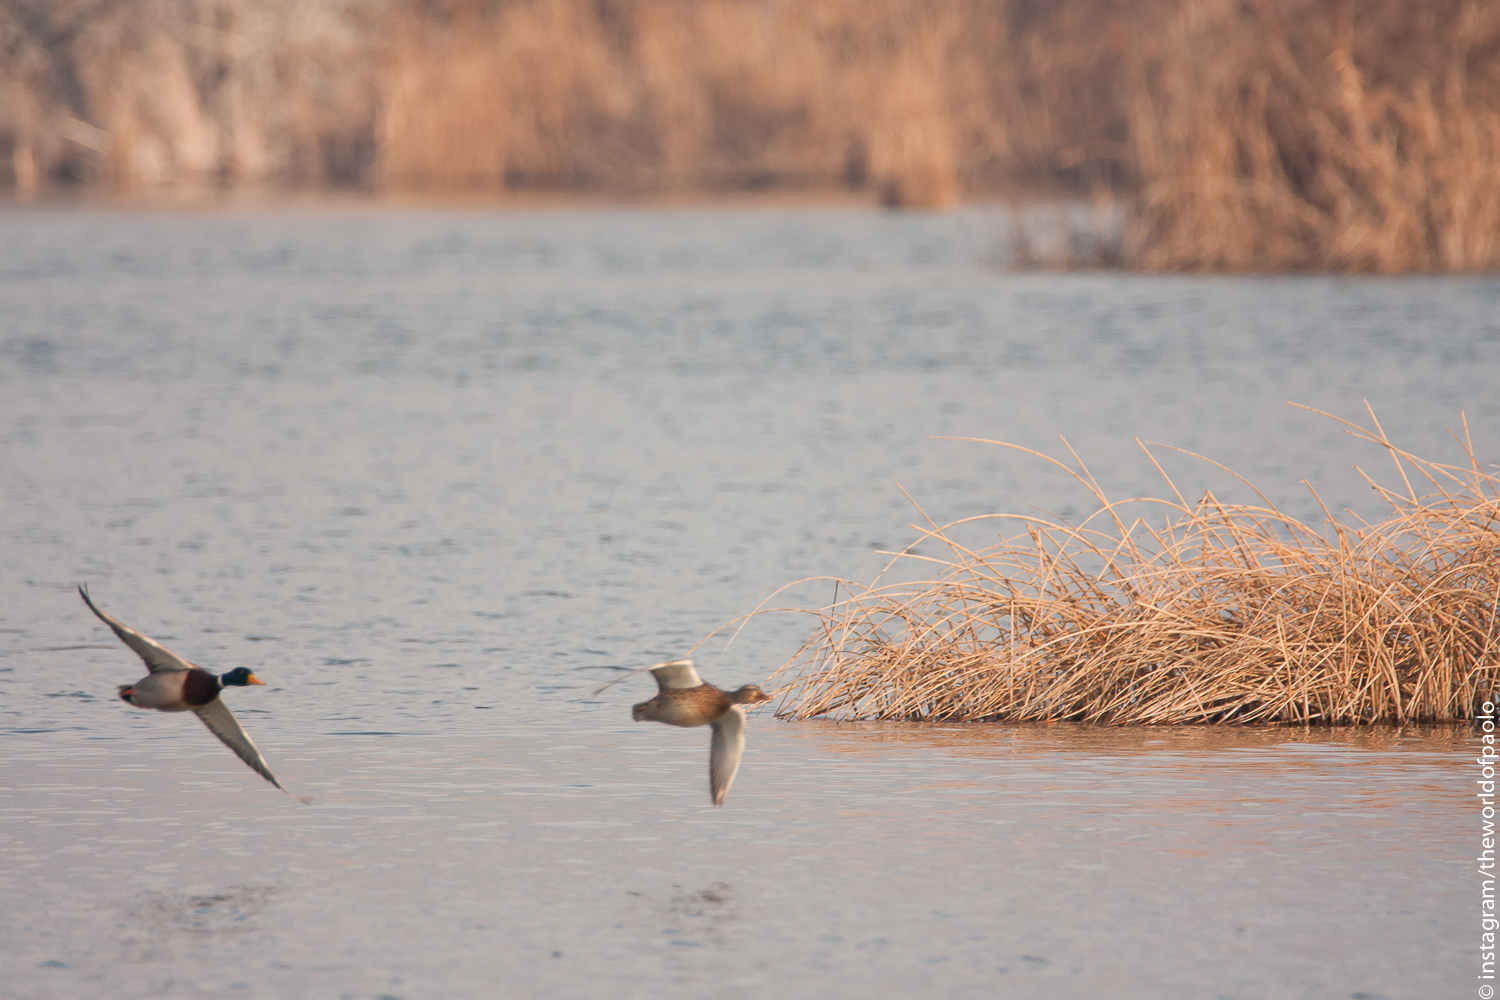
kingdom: Animalia
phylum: Chordata
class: Aves
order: Anseriformes
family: Anatidae
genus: Anas
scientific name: Anas platyrhynchos
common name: Mallard
